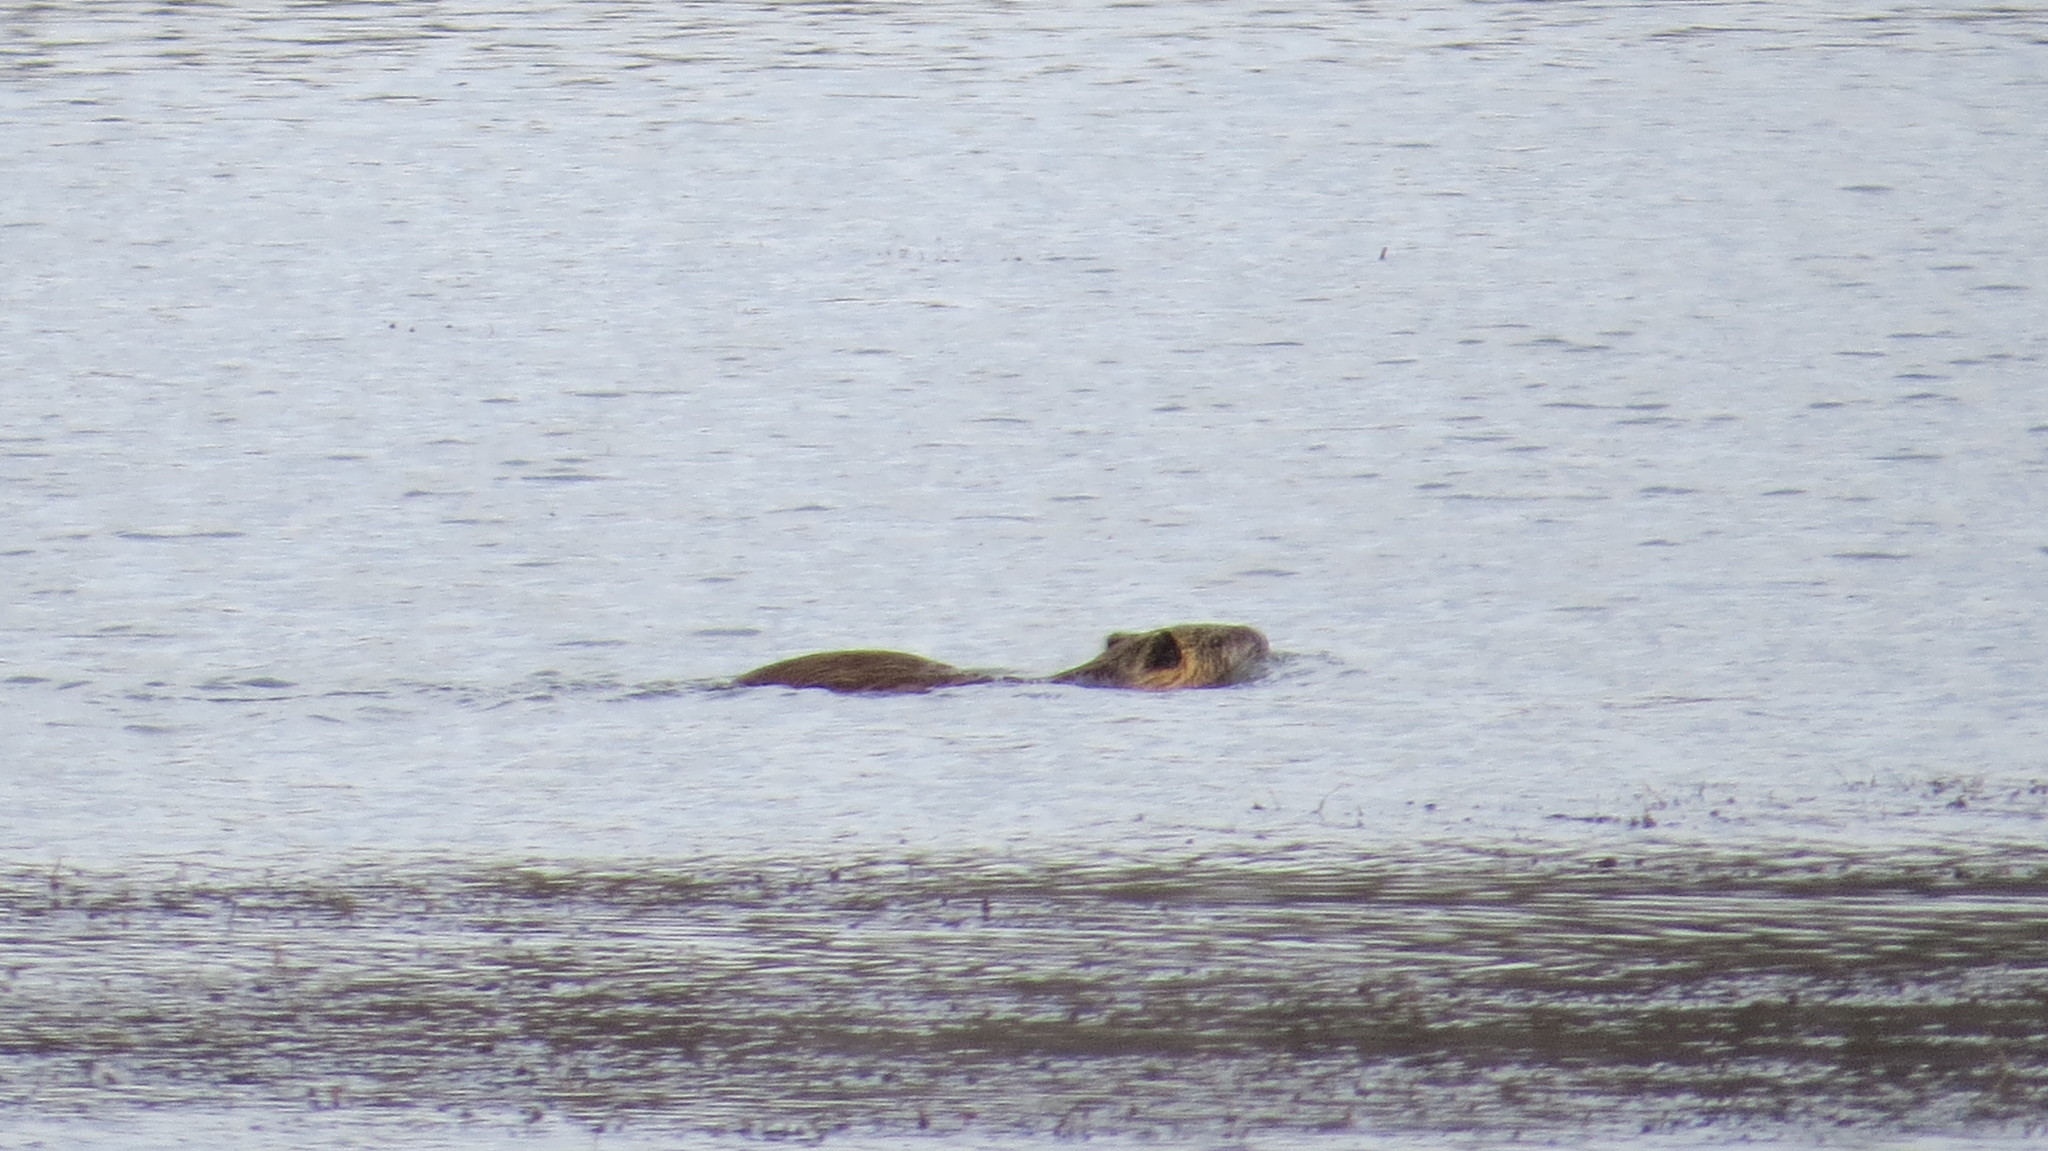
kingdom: Animalia
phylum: Chordata
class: Mammalia
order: Rodentia
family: Myocastoridae
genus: Myocastor
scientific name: Myocastor coypus
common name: Coypu
